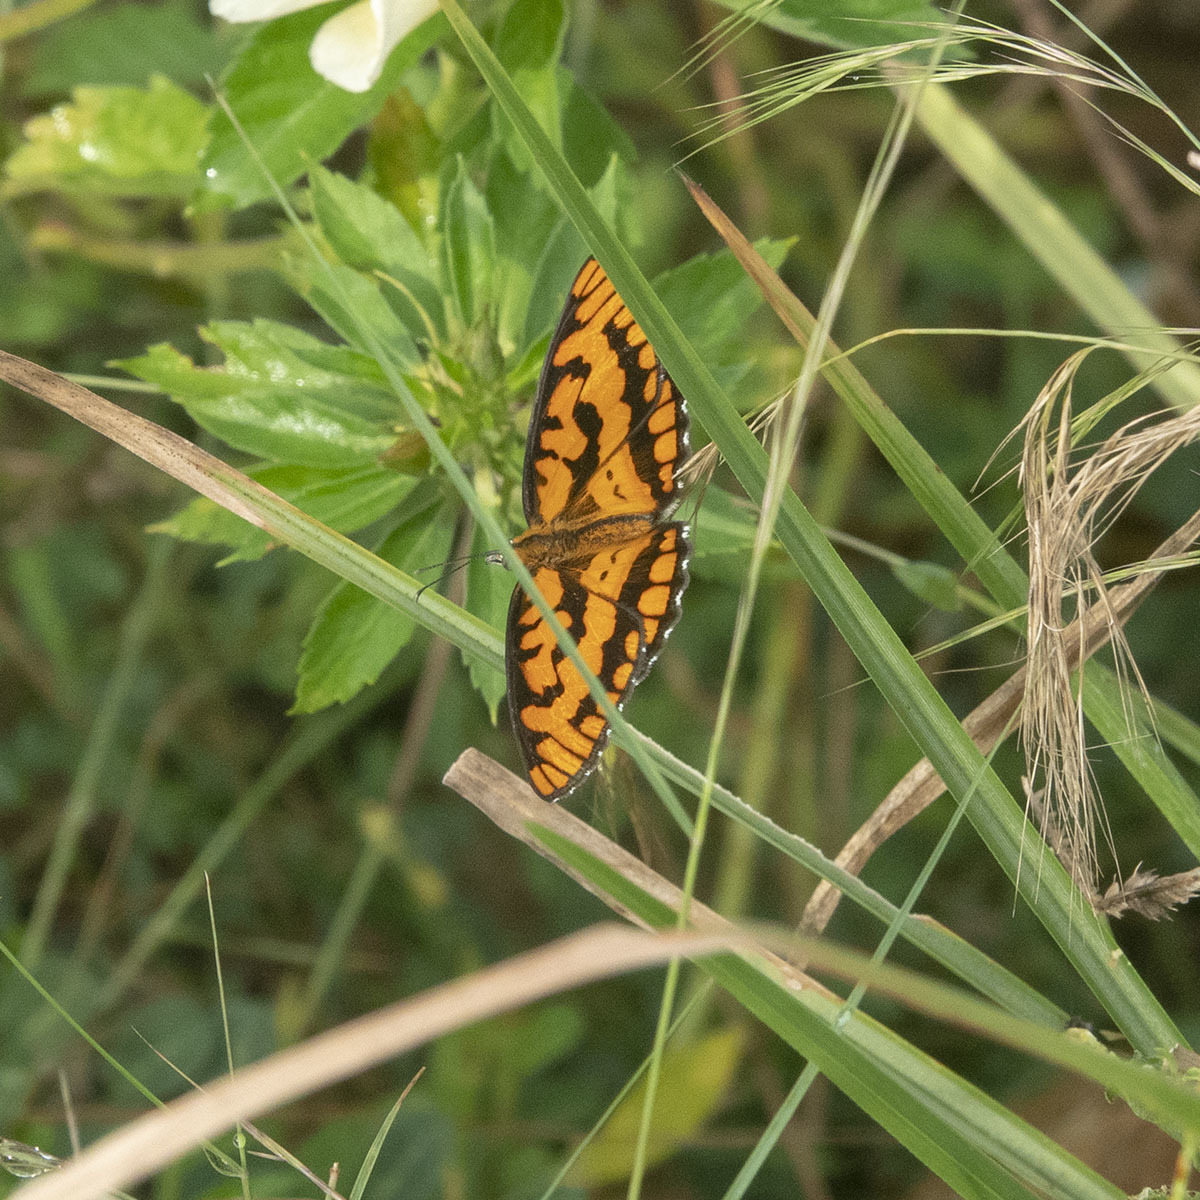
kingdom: Animalia
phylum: Arthropoda
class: Insecta
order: Lepidoptera
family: Nymphalidae
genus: Byblia
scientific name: Byblia ilithyia
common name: Spotted joker
